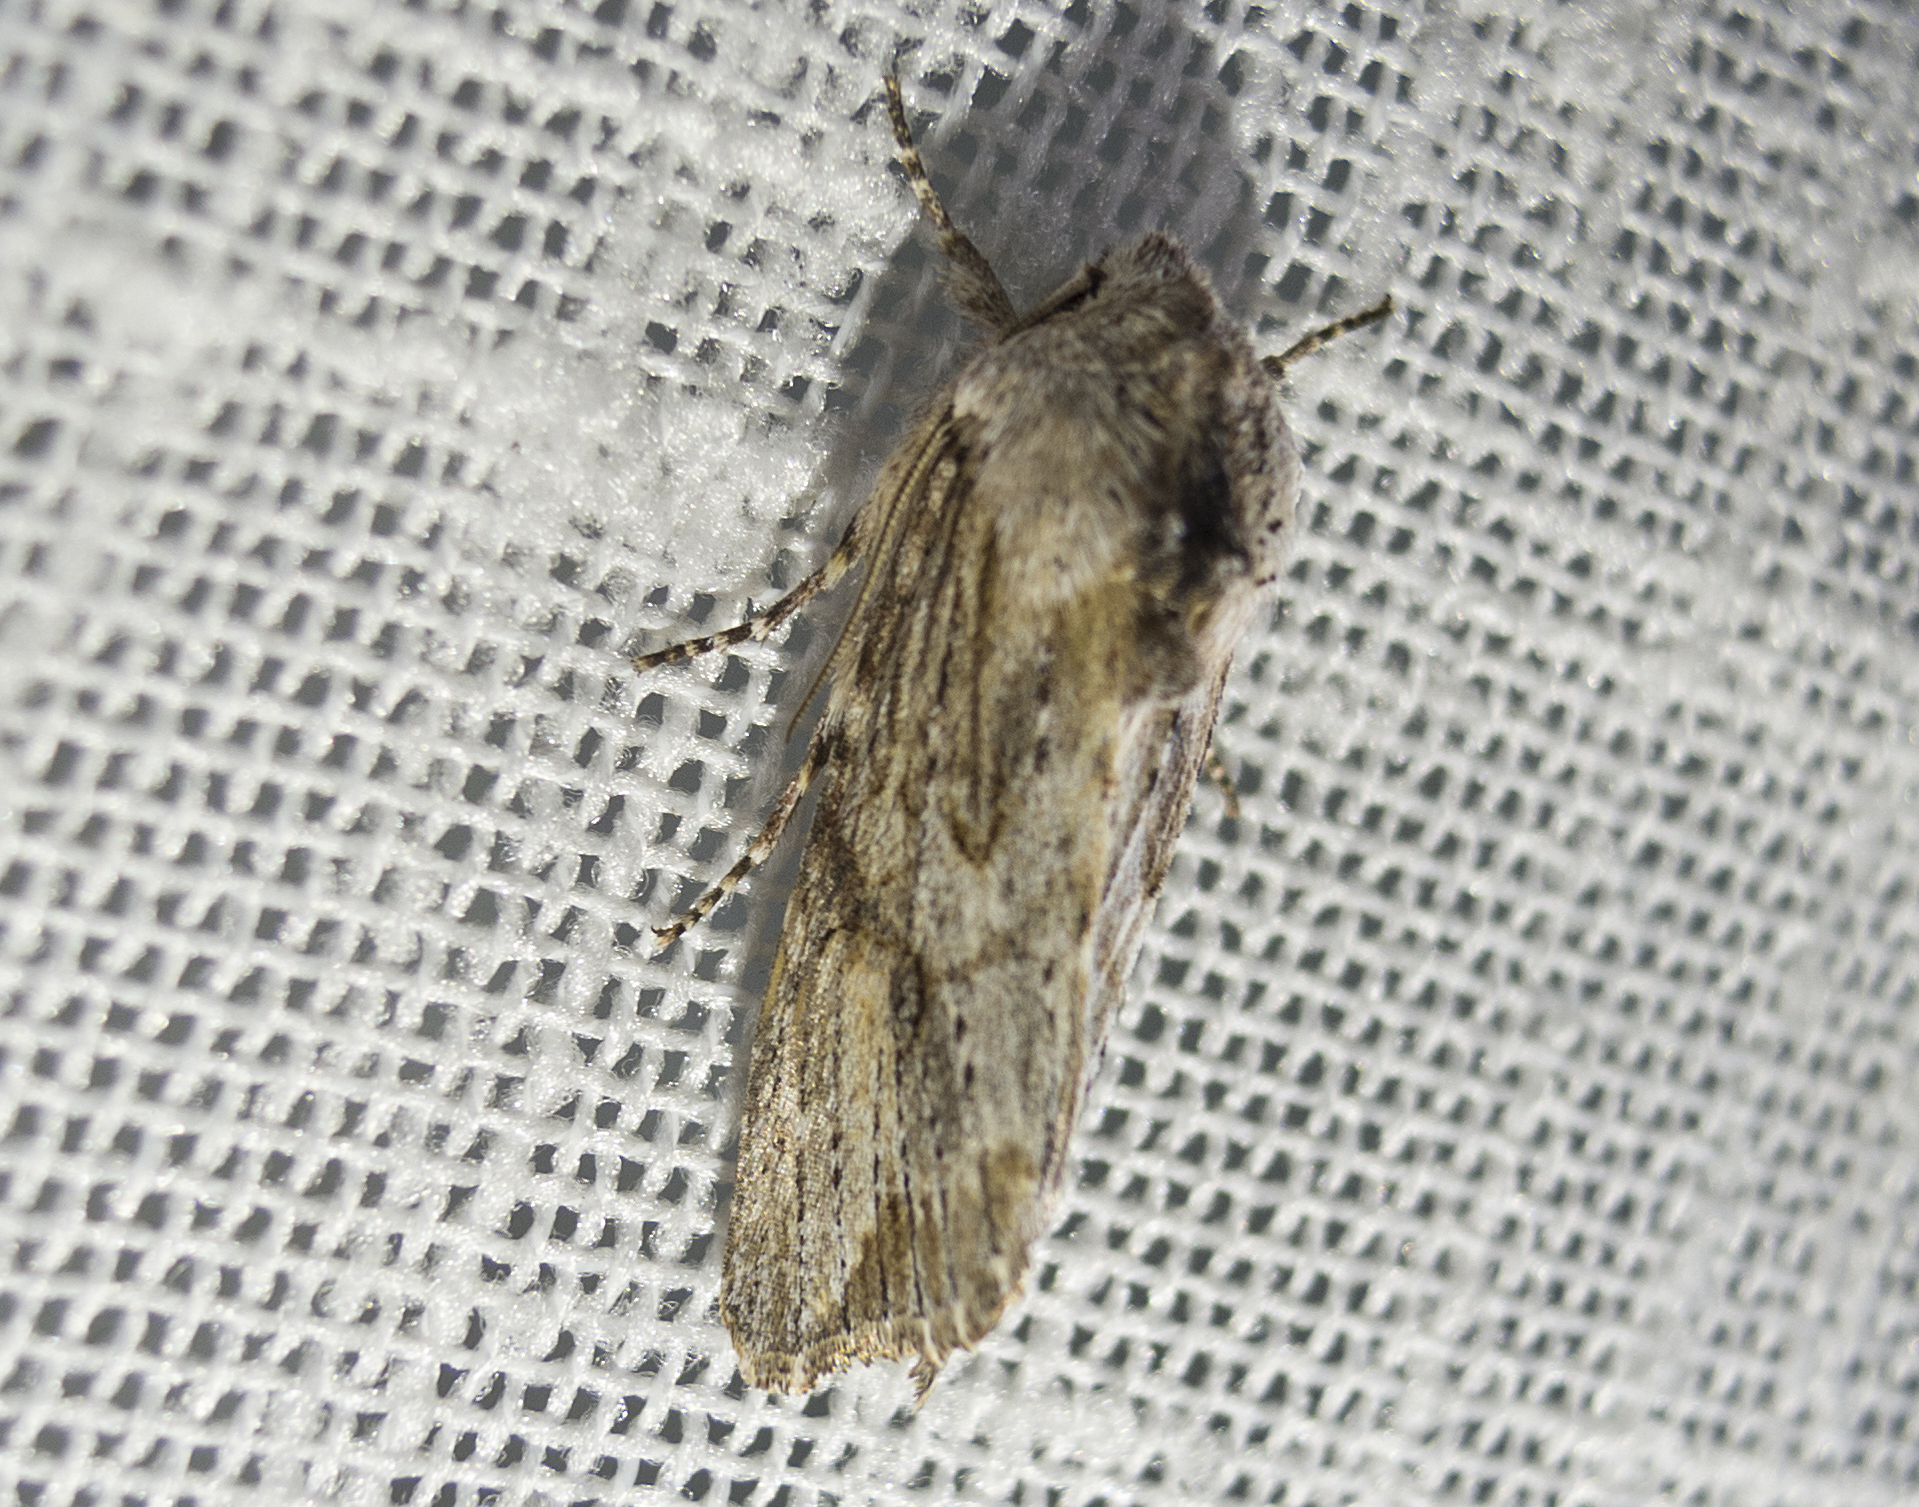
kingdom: Animalia
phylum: Arthropoda
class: Insecta
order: Lepidoptera
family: Noctuidae
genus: Egira
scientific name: Egira
